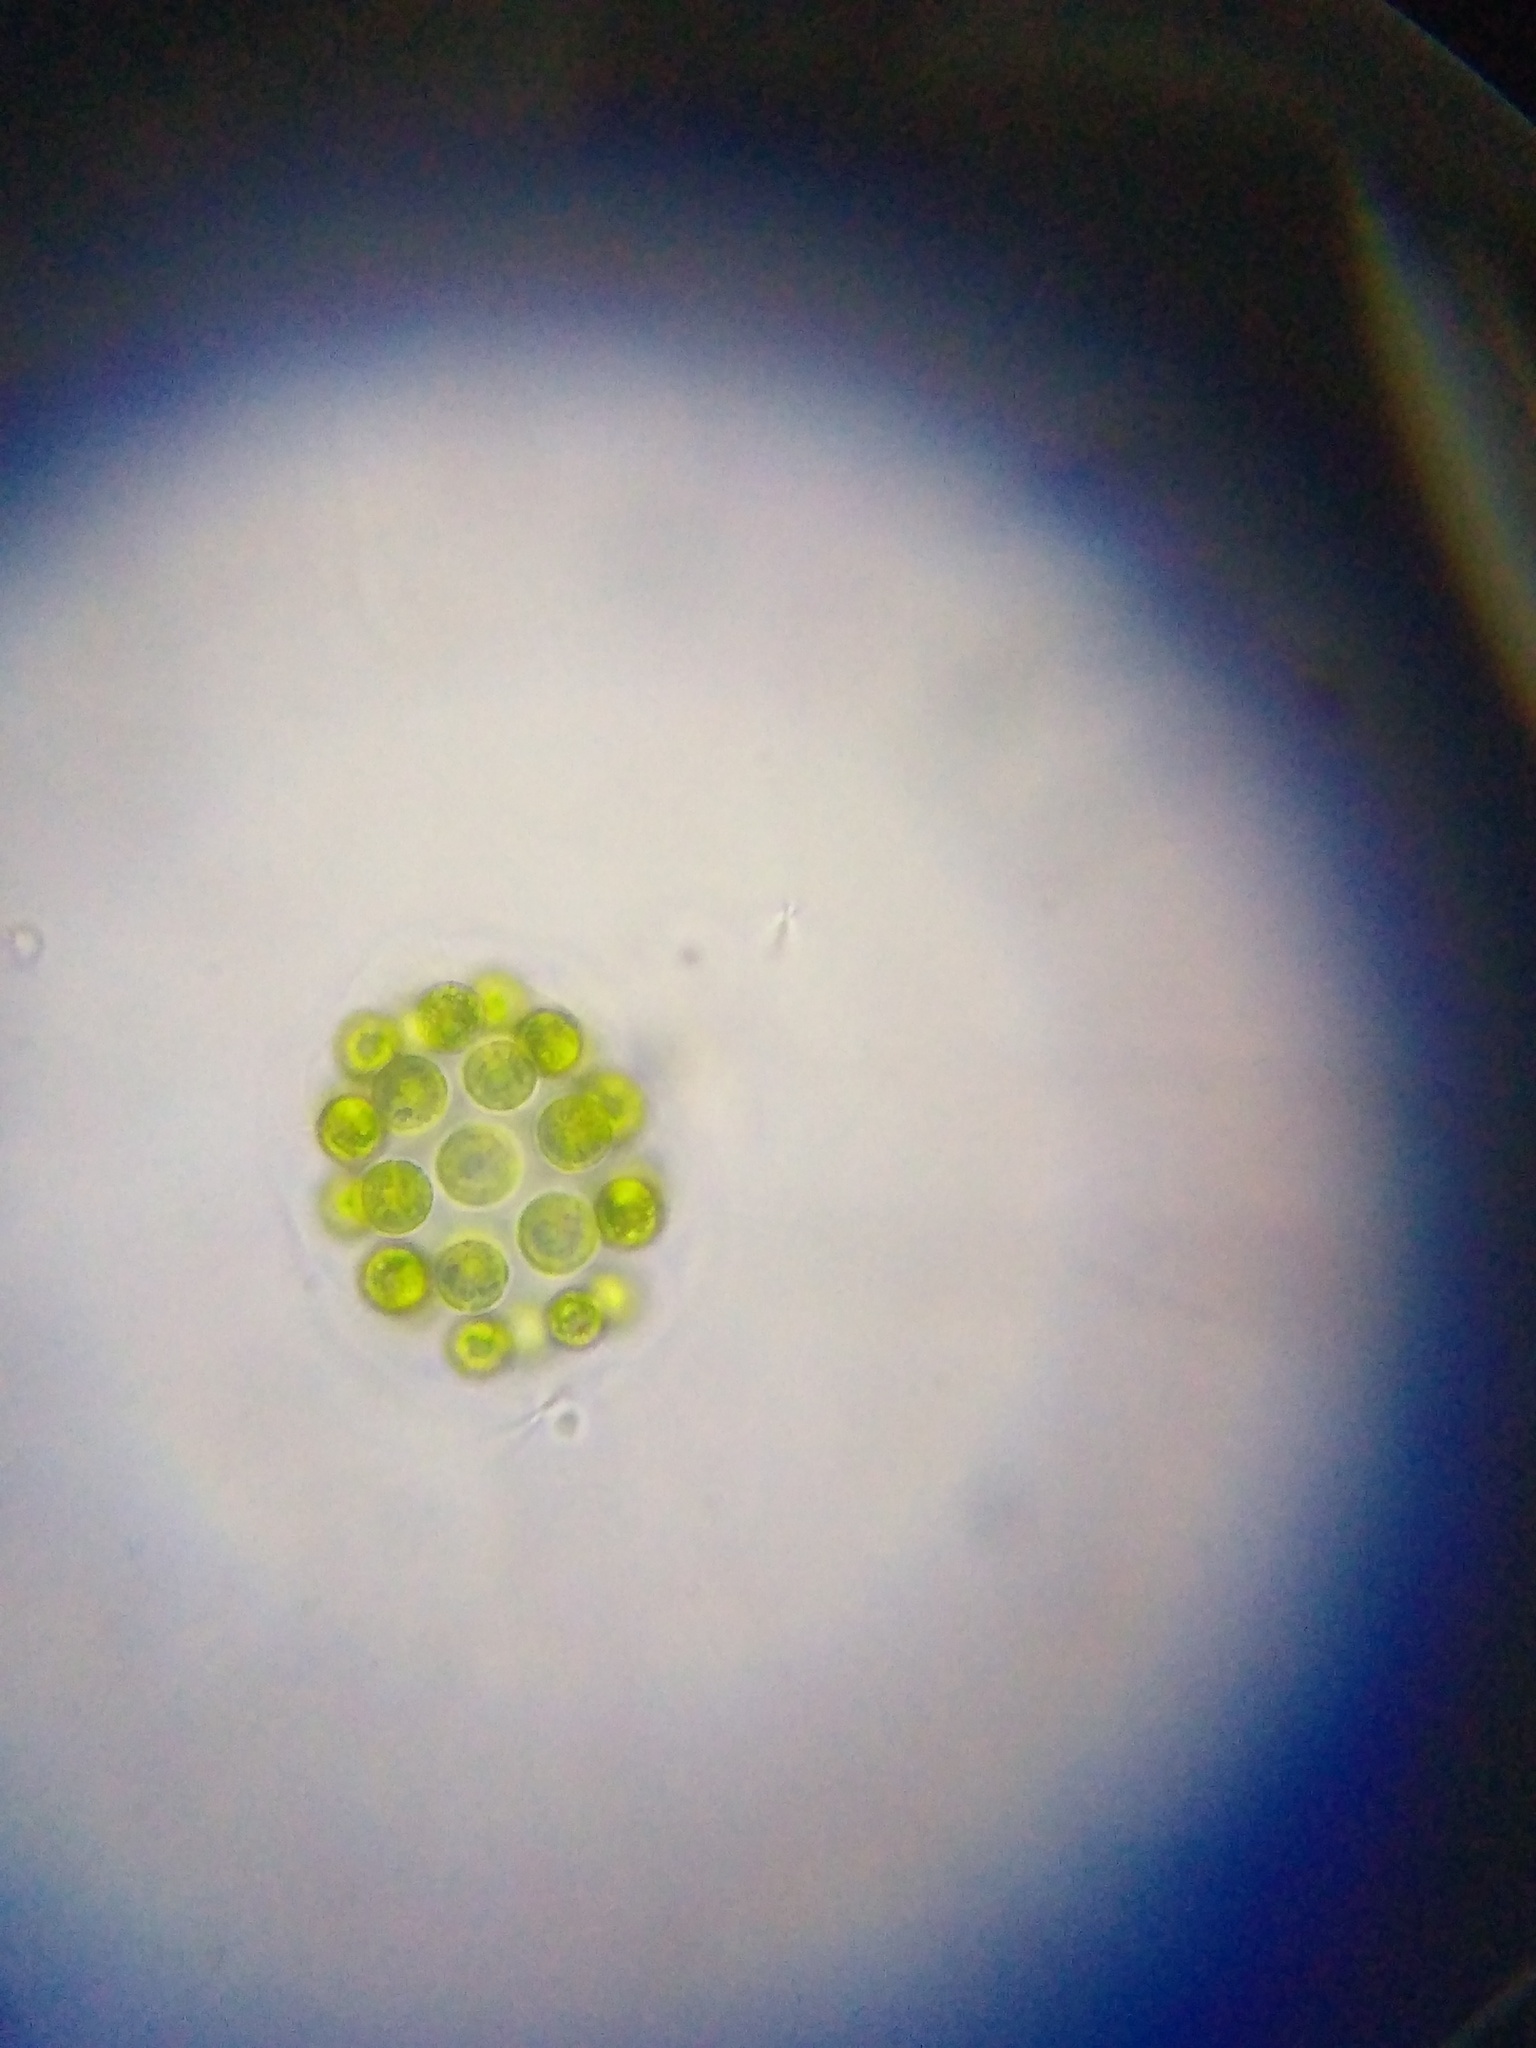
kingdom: Plantae
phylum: Chlorophyta
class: Chlorophyceae
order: Volvocales
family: Volvocaceae
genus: Eudorina
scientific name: Eudorina elegans
